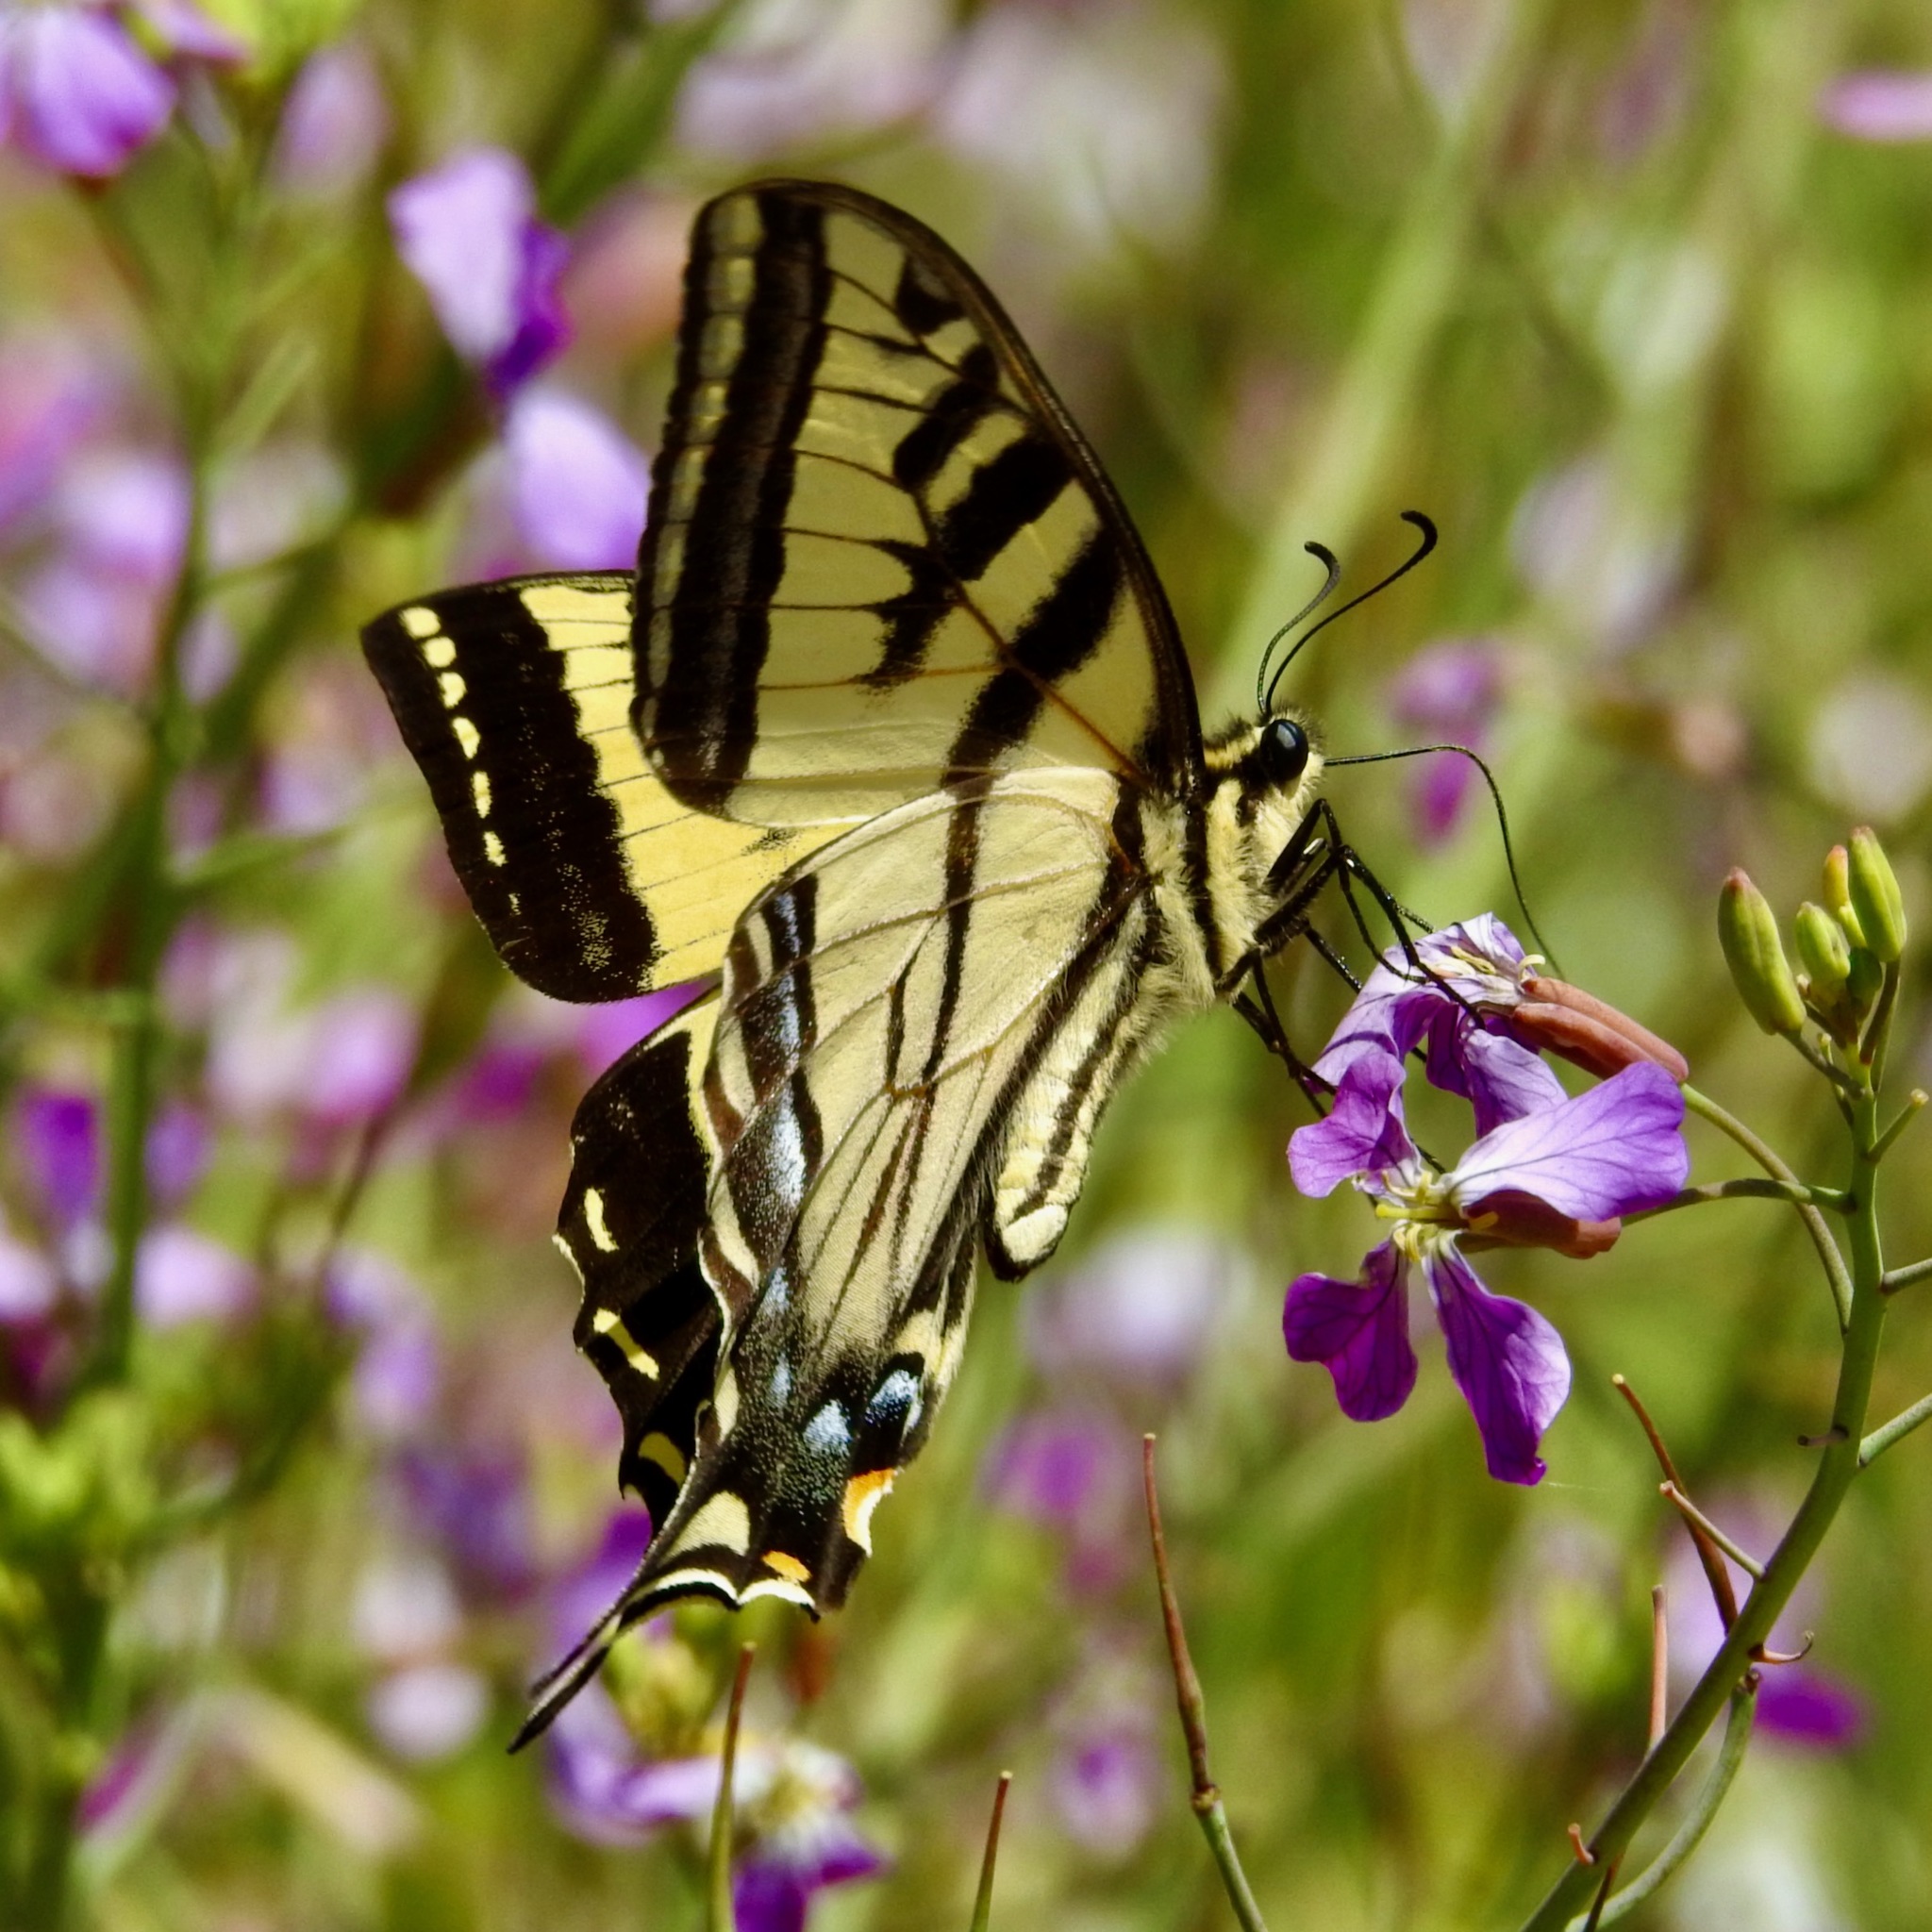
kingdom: Animalia
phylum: Arthropoda
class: Insecta
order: Lepidoptera
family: Papilionidae
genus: Papilio
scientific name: Papilio rutulus
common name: Western tiger swallowtail
